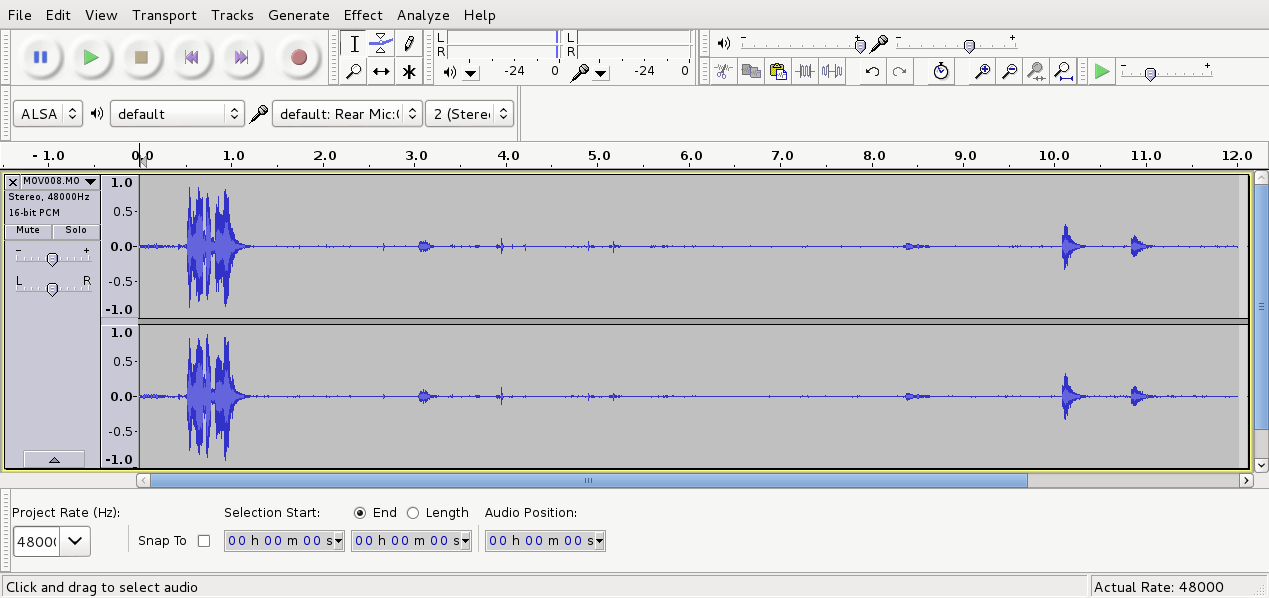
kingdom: Animalia
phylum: Chordata
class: Aves
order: Passeriformes
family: Notiomystidae
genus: Notiomystis
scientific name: Notiomystis cincta
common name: Stitchbird
